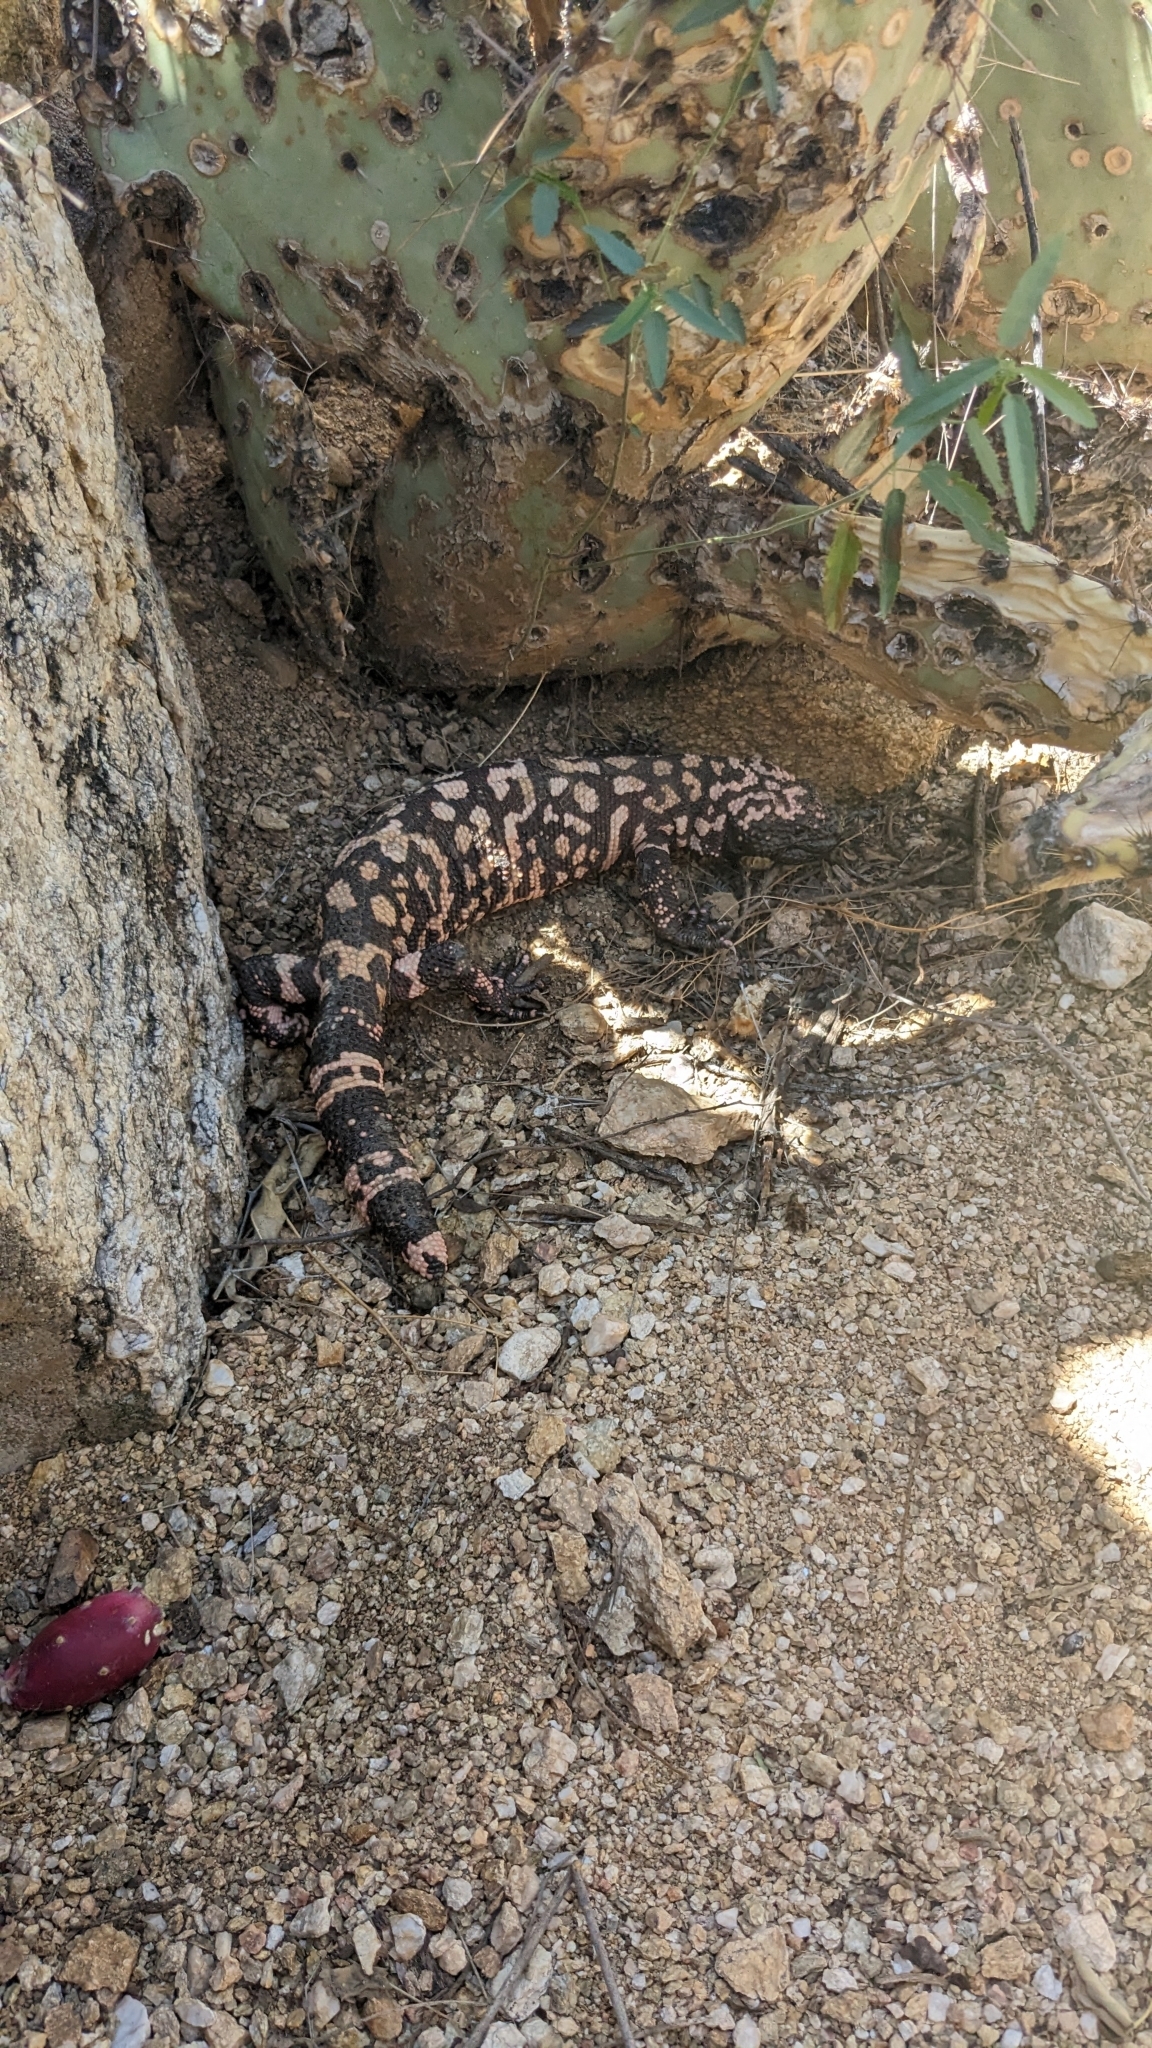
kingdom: Animalia
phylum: Chordata
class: Squamata
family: Helodermatidae
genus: Heloderma
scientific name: Heloderma suspectum
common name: Gila monster
